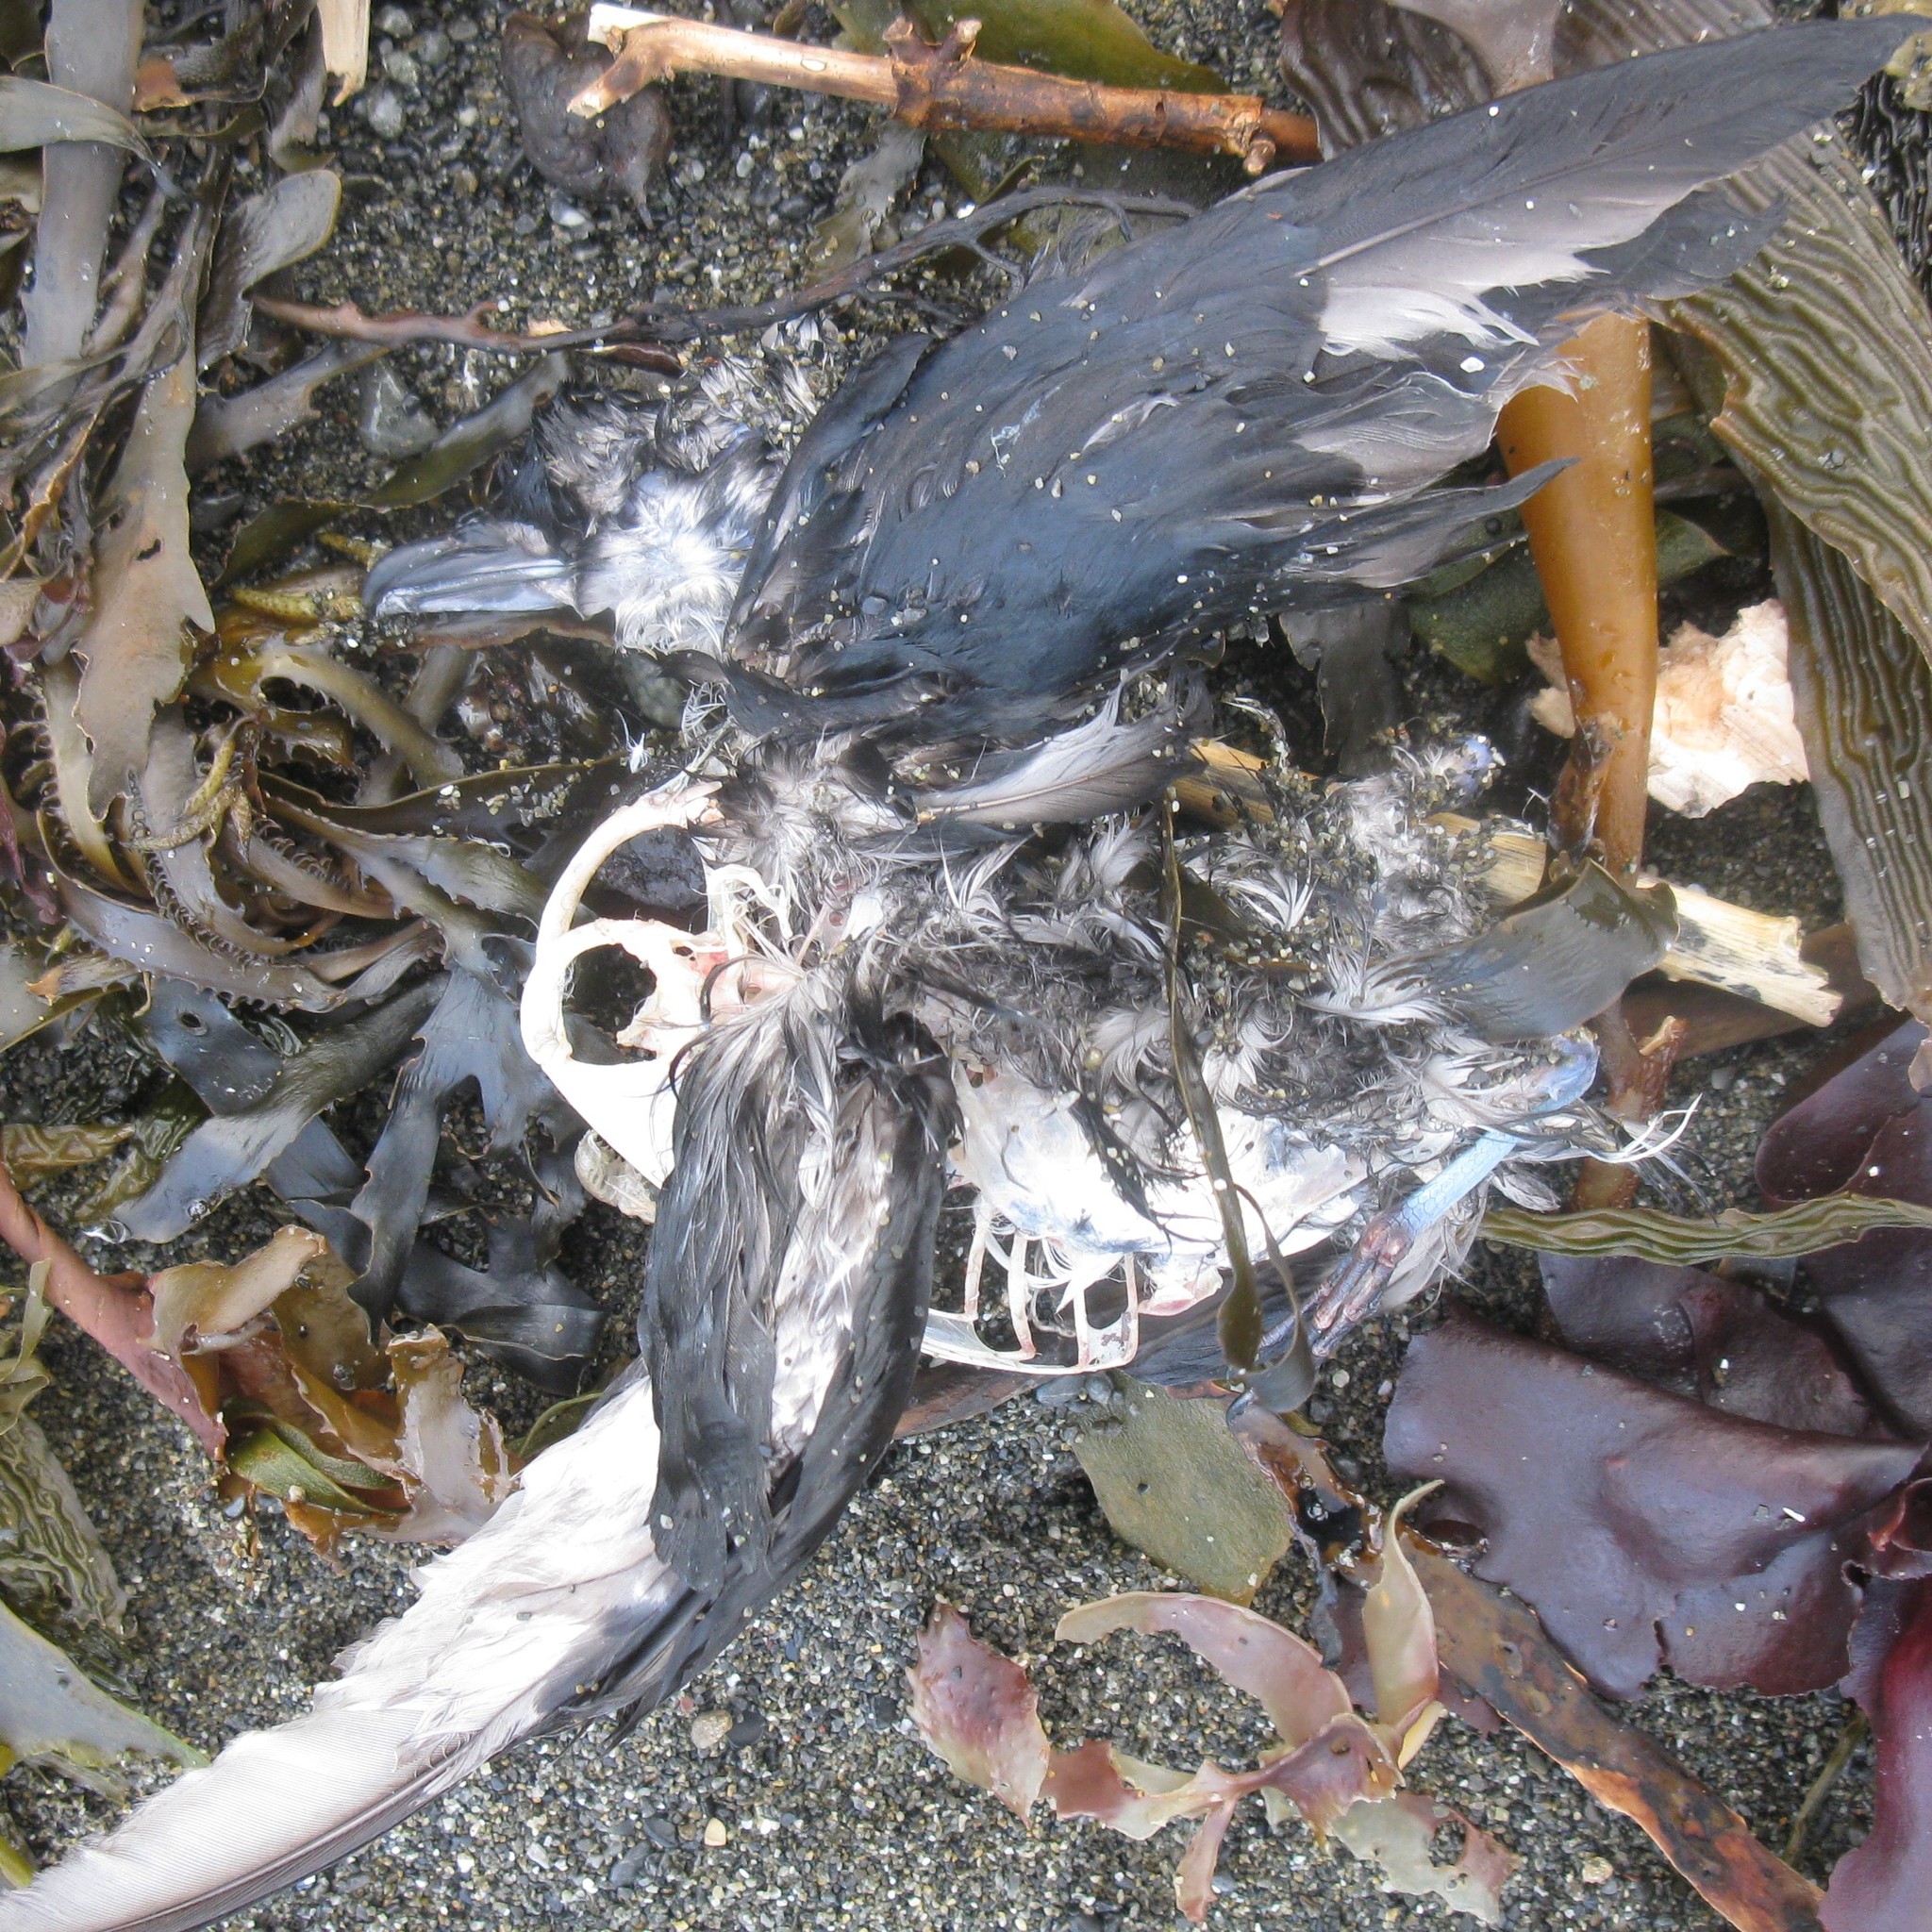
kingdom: Animalia
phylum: Chordata
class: Aves
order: Procellariiformes
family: Pelecanoididae
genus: Pelecanoides
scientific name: Pelecanoides urinatrix
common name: Common diving-petrel
